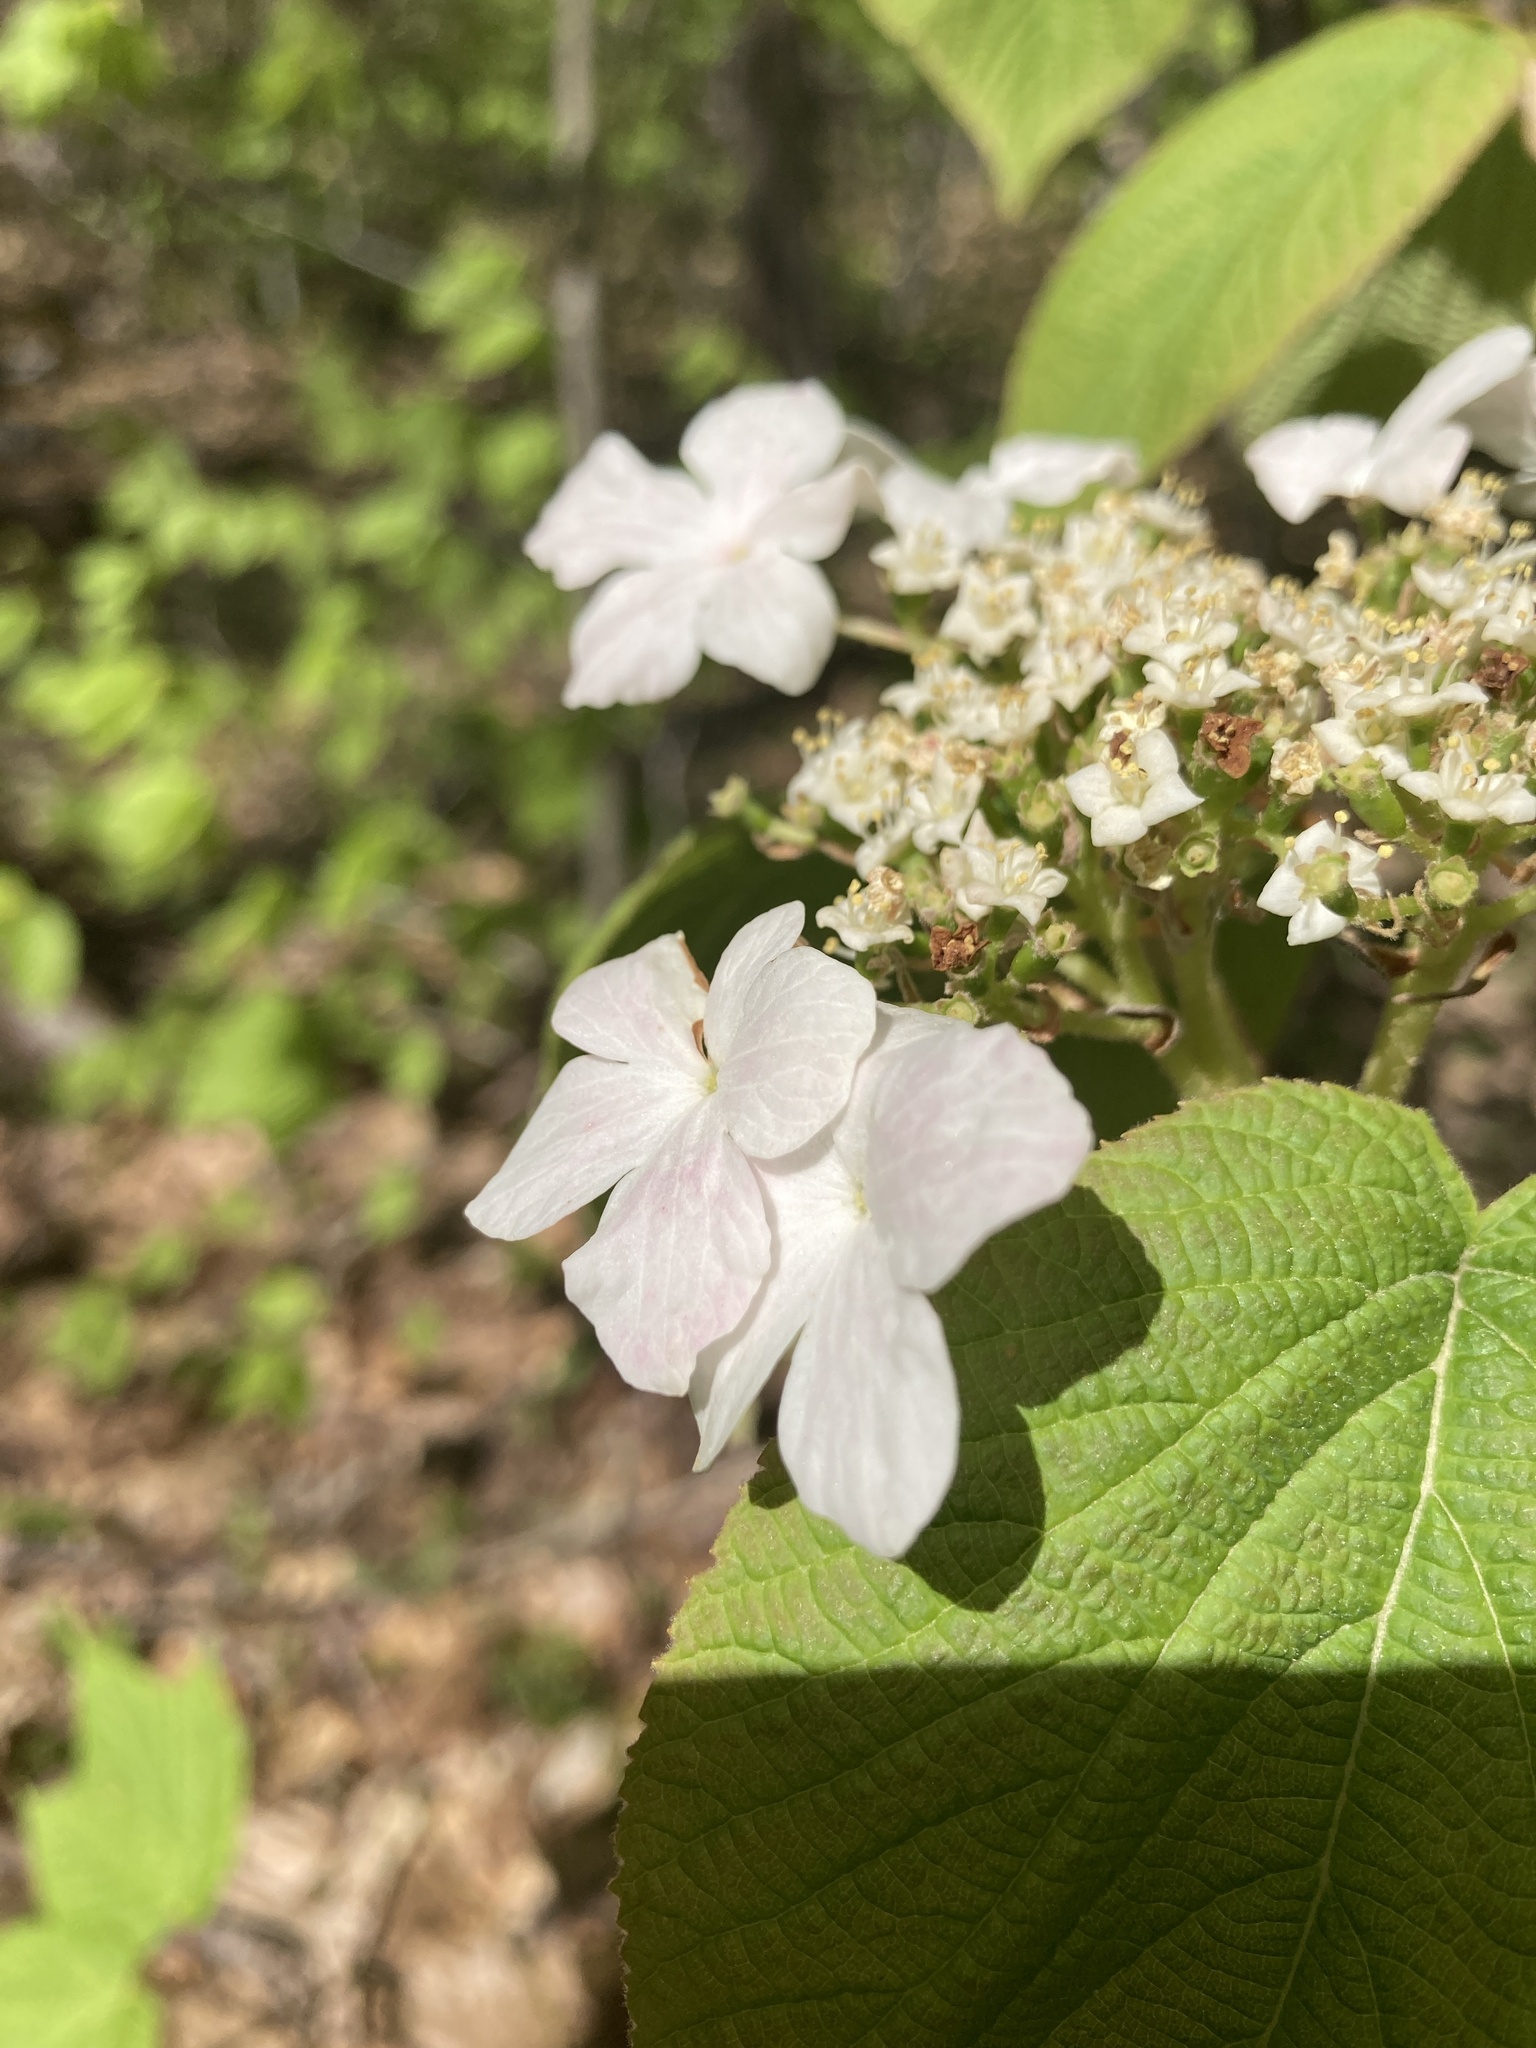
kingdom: Plantae
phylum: Tracheophyta
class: Magnoliopsida
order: Dipsacales
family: Viburnaceae
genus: Viburnum
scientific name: Viburnum lantanoides
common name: Hobblebush
